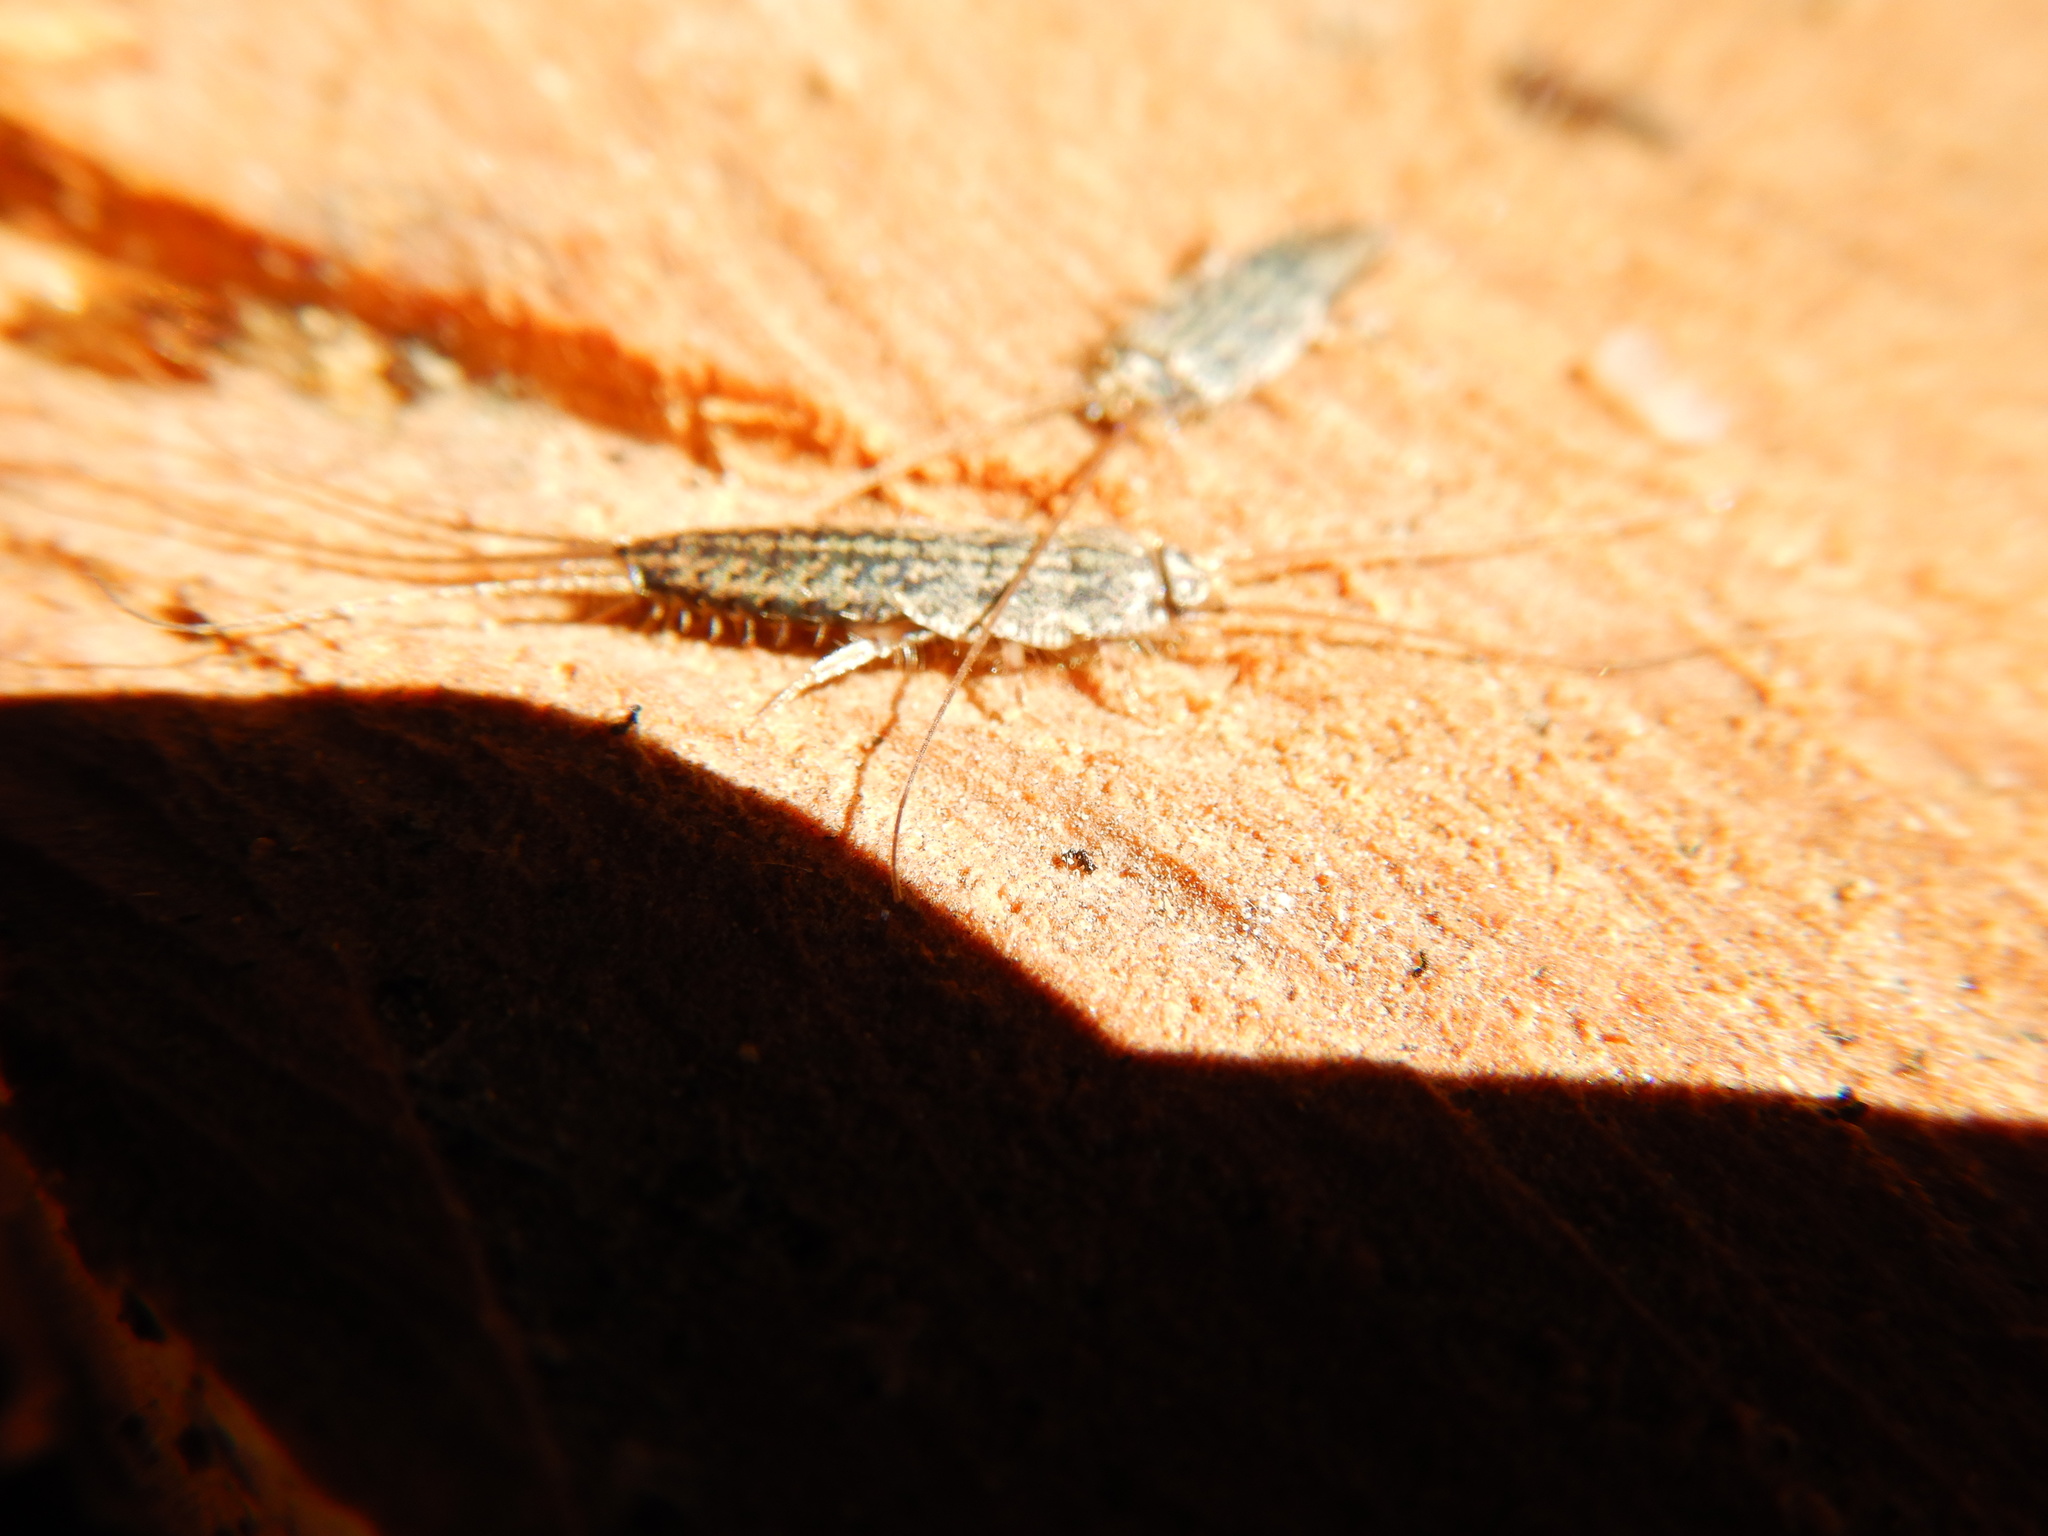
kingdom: Animalia
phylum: Arthropoda
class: Insecta
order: Zygentoma
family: Lepismatidae
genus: Ctenolepisma
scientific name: Ctenolepisma lineata
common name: Four-lined silverfish
